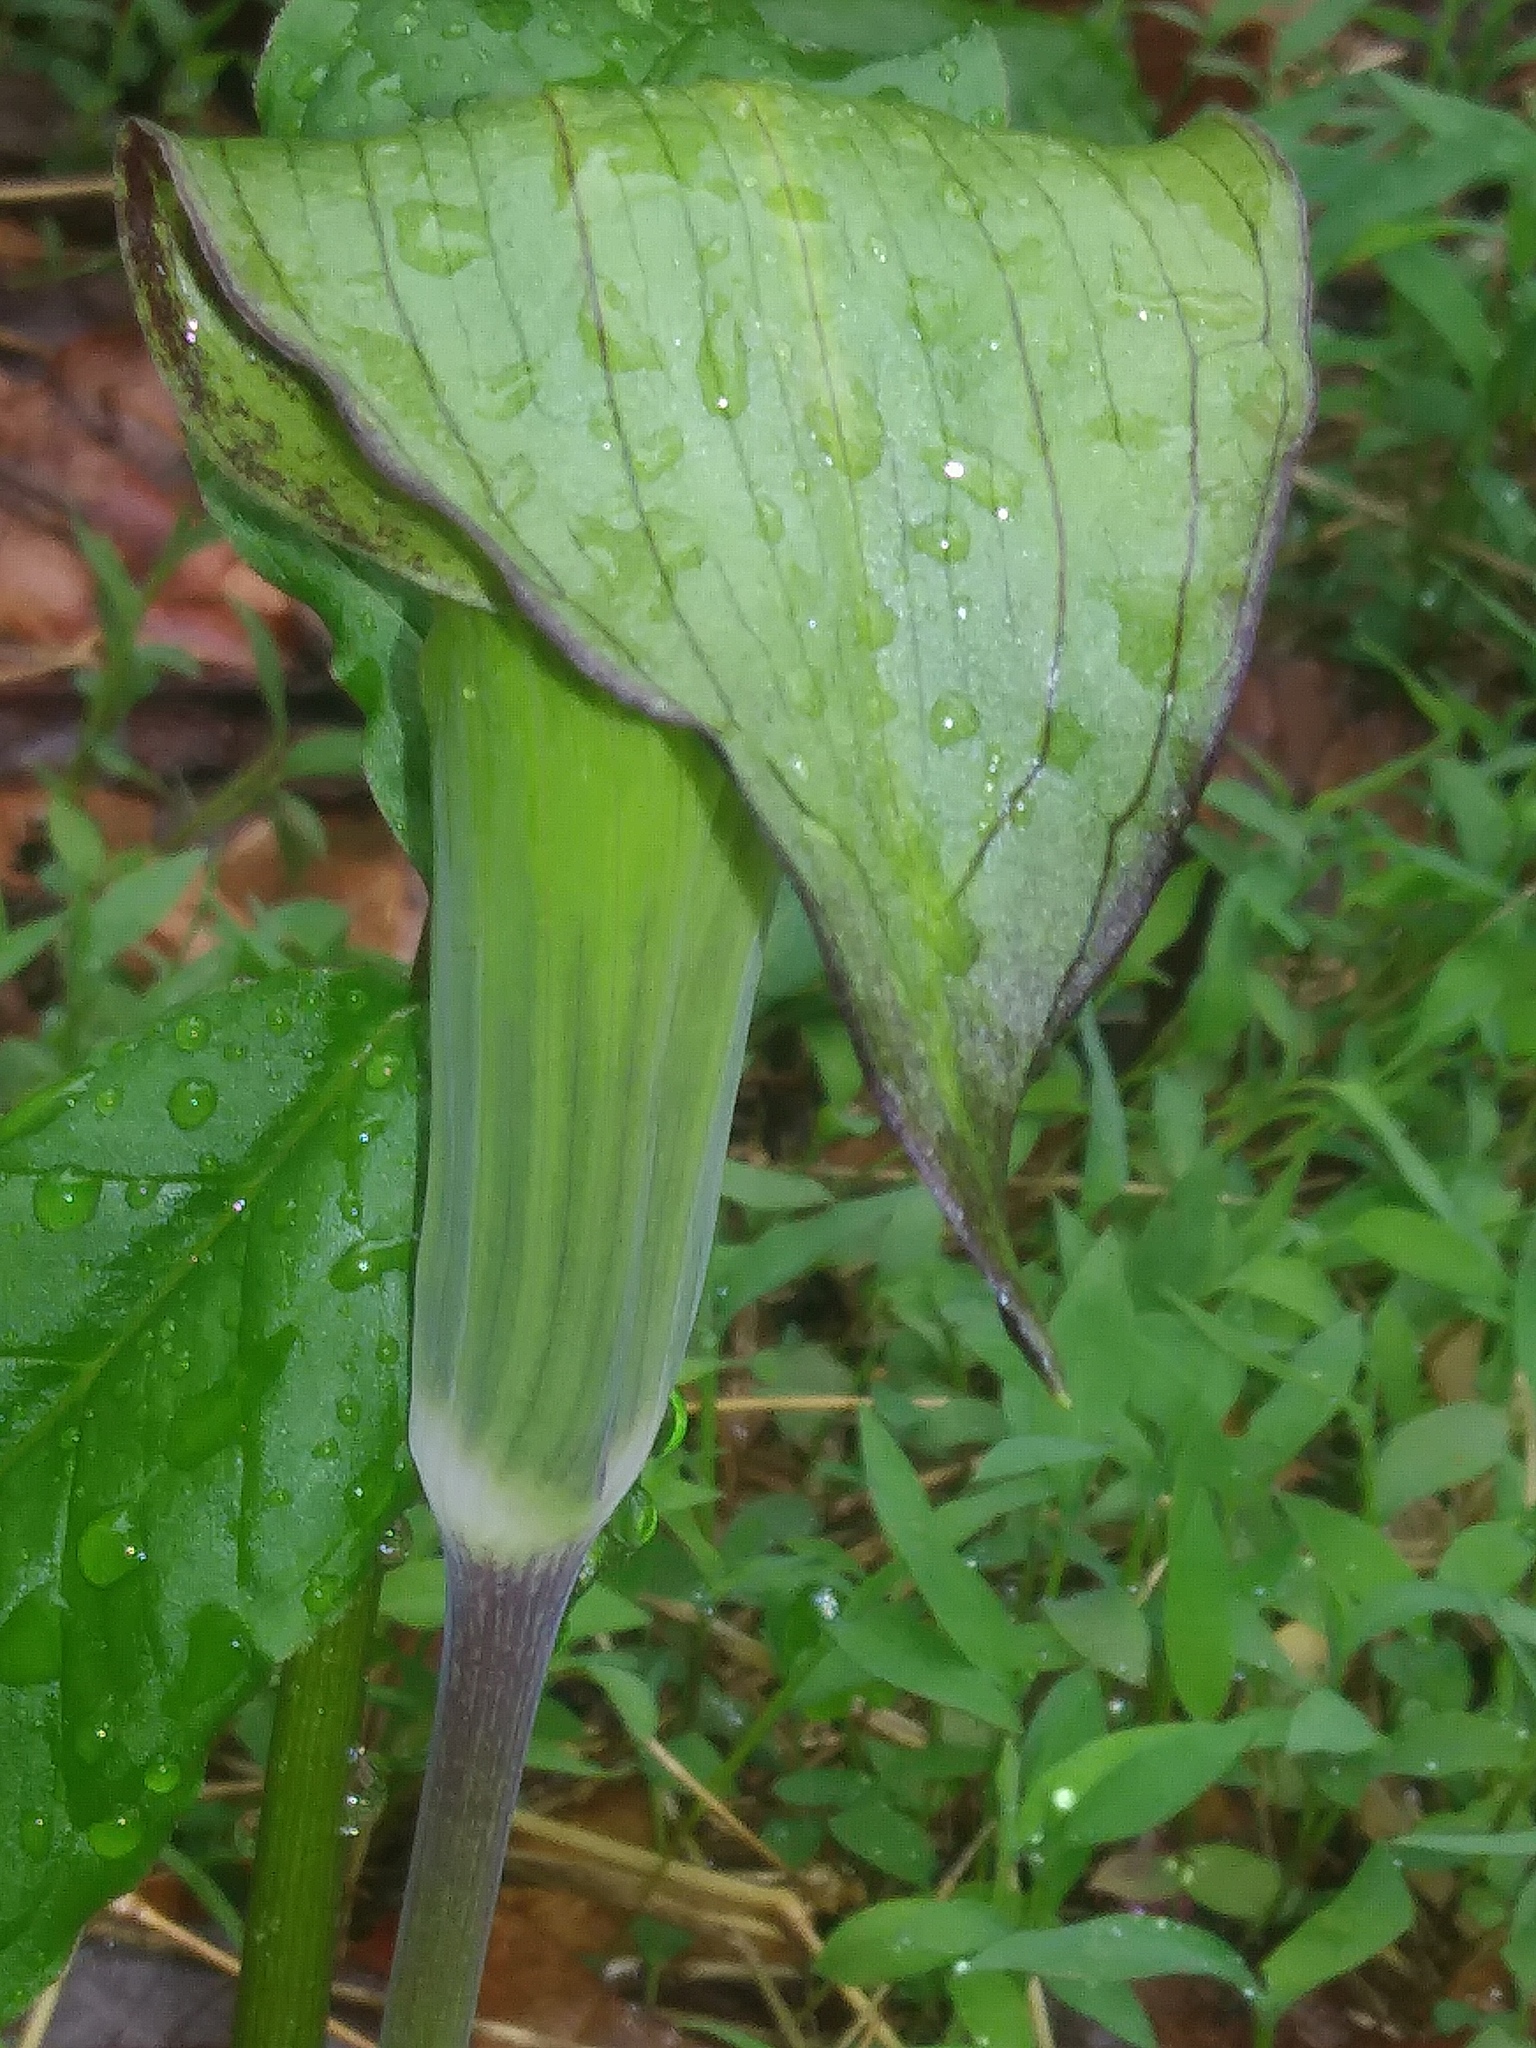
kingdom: Plantae
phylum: Tracheophyta
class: Liliopsida
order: Alismatales
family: Araceae
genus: Arisaema
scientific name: Arisaema triphyllum
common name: Jack-in-the-pulpit
